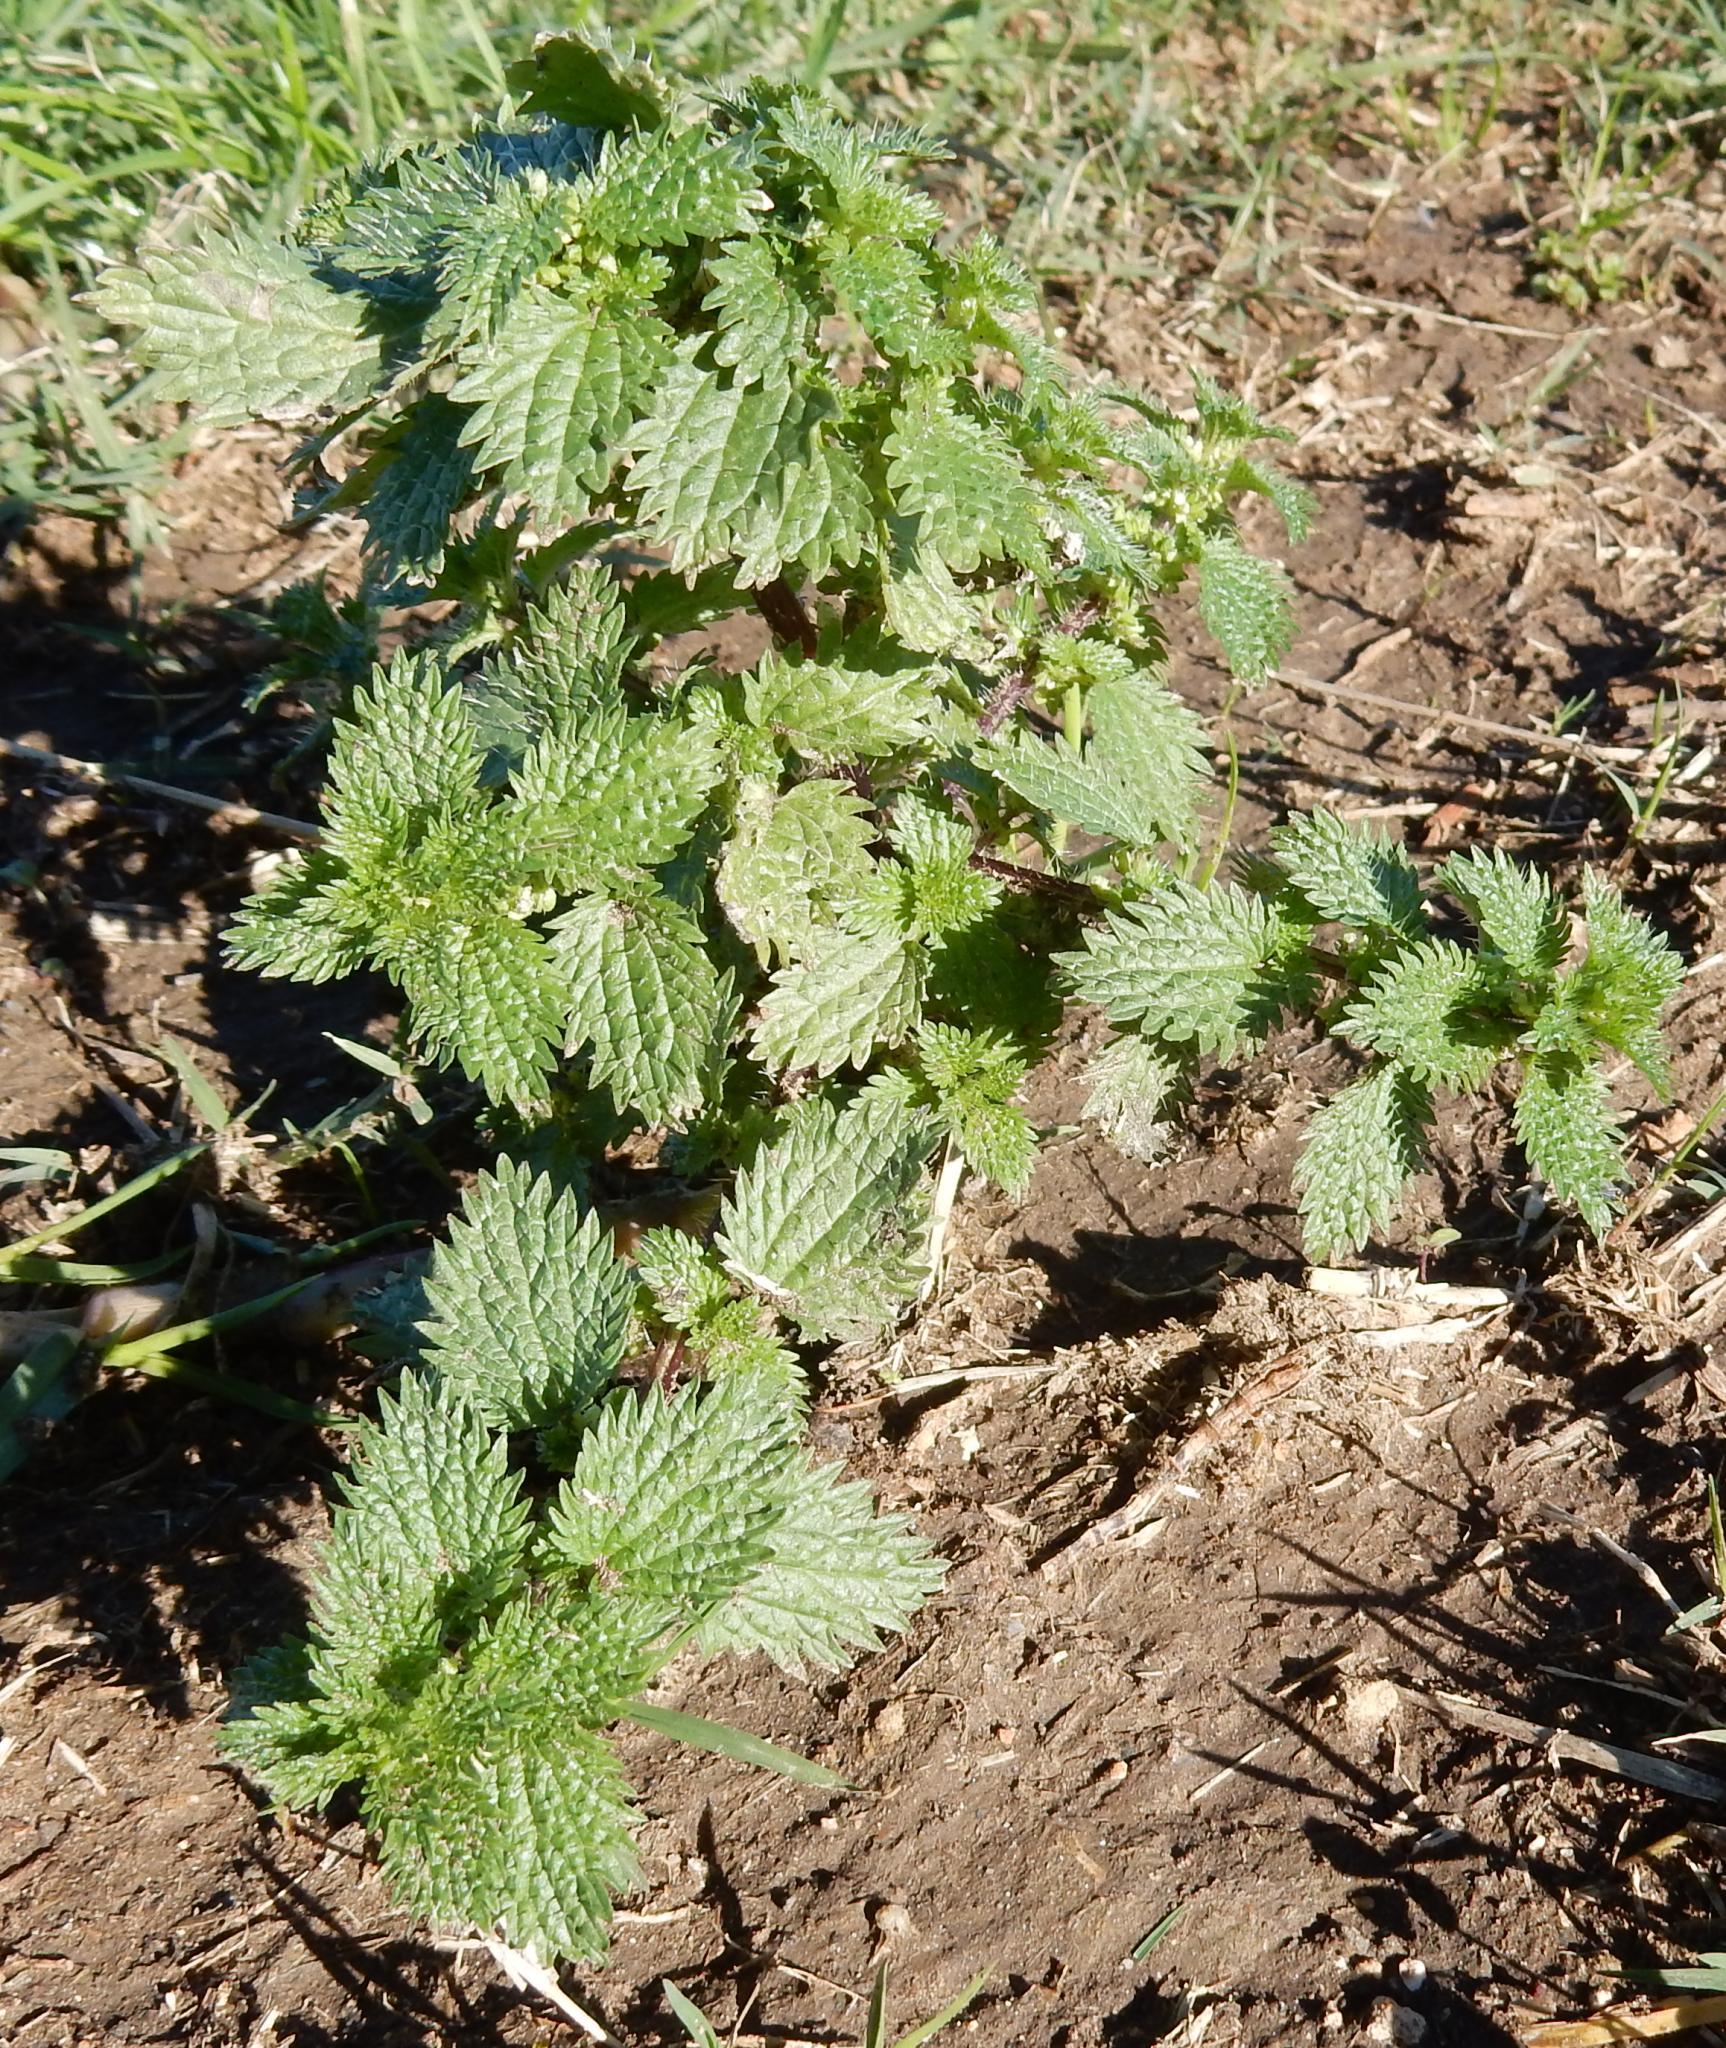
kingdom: Plantae
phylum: Tracheophyta
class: Magnoliopsida
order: Rosales
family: Urticaceae
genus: Urtica
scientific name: Urtica urens
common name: Dwarf nettle
